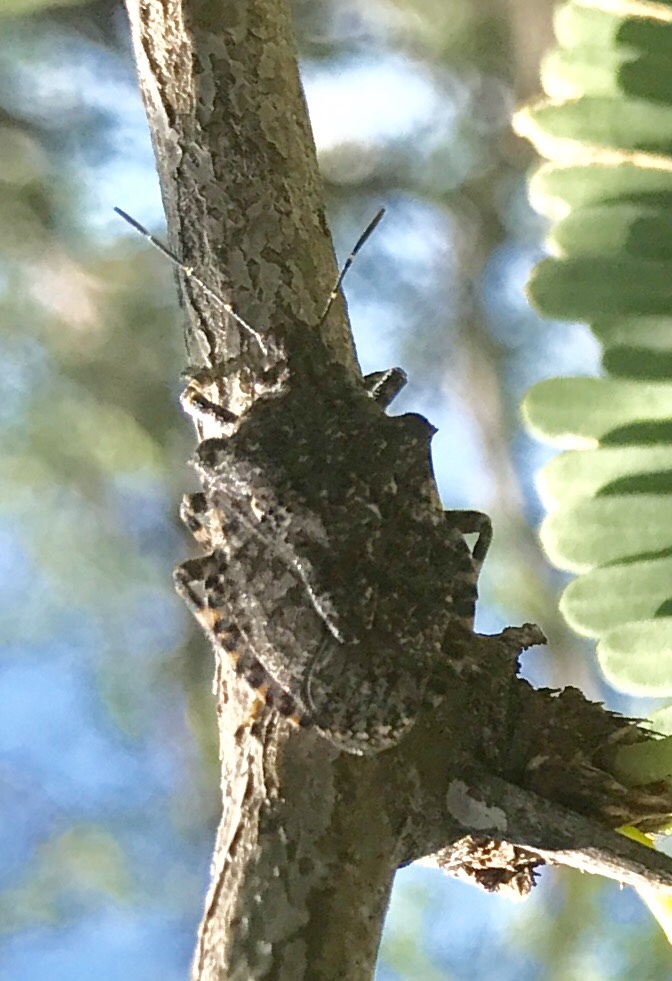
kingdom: Animalia
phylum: Arthropoda
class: Insecta
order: Hemiptera
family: Pentatomidae
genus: Brochymena
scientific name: Brochymena parva
